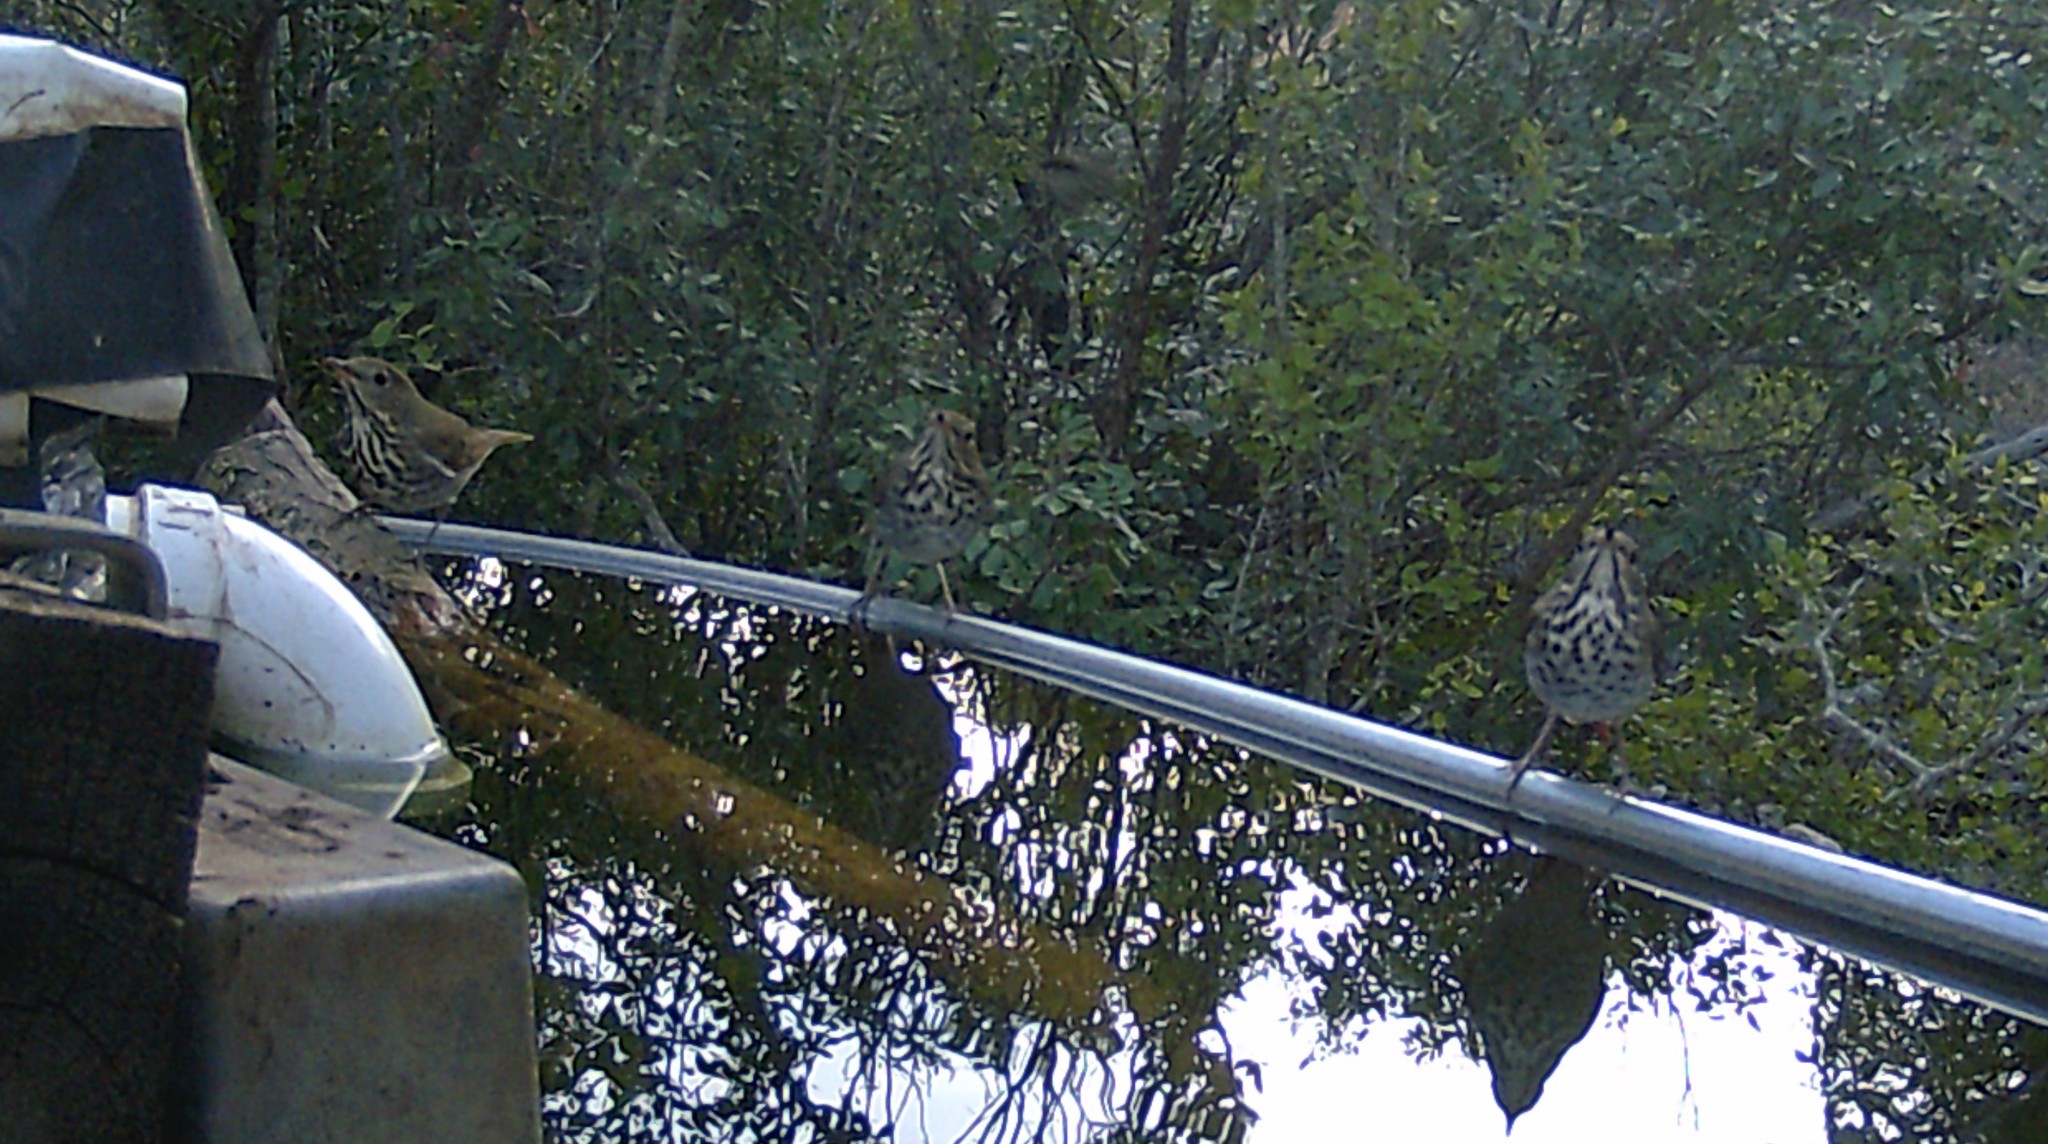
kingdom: Animalia
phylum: Chordata
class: Aves
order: Passeriformes
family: Turdidae
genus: Catharus
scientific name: Catharus guttatus
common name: Hermit thrush
